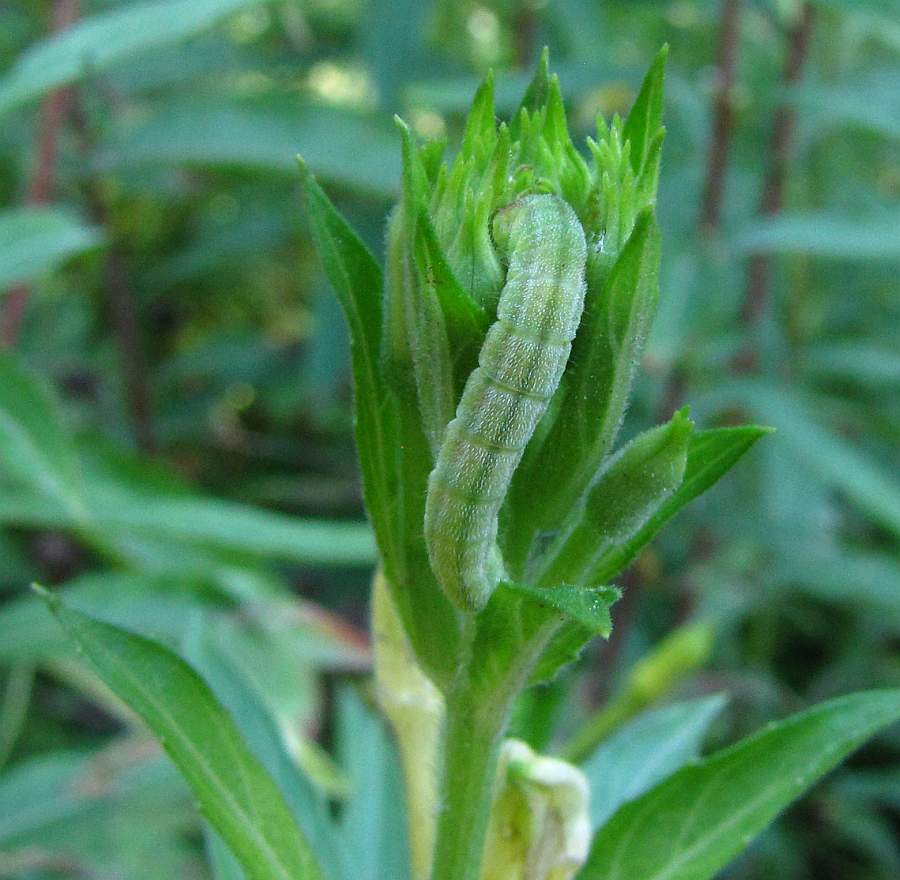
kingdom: Animalia
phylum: Arthropoda
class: Insecta
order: Lepidoptera
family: Noctuidae
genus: Schinia
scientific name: Schinia florida
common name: Primrose moth
